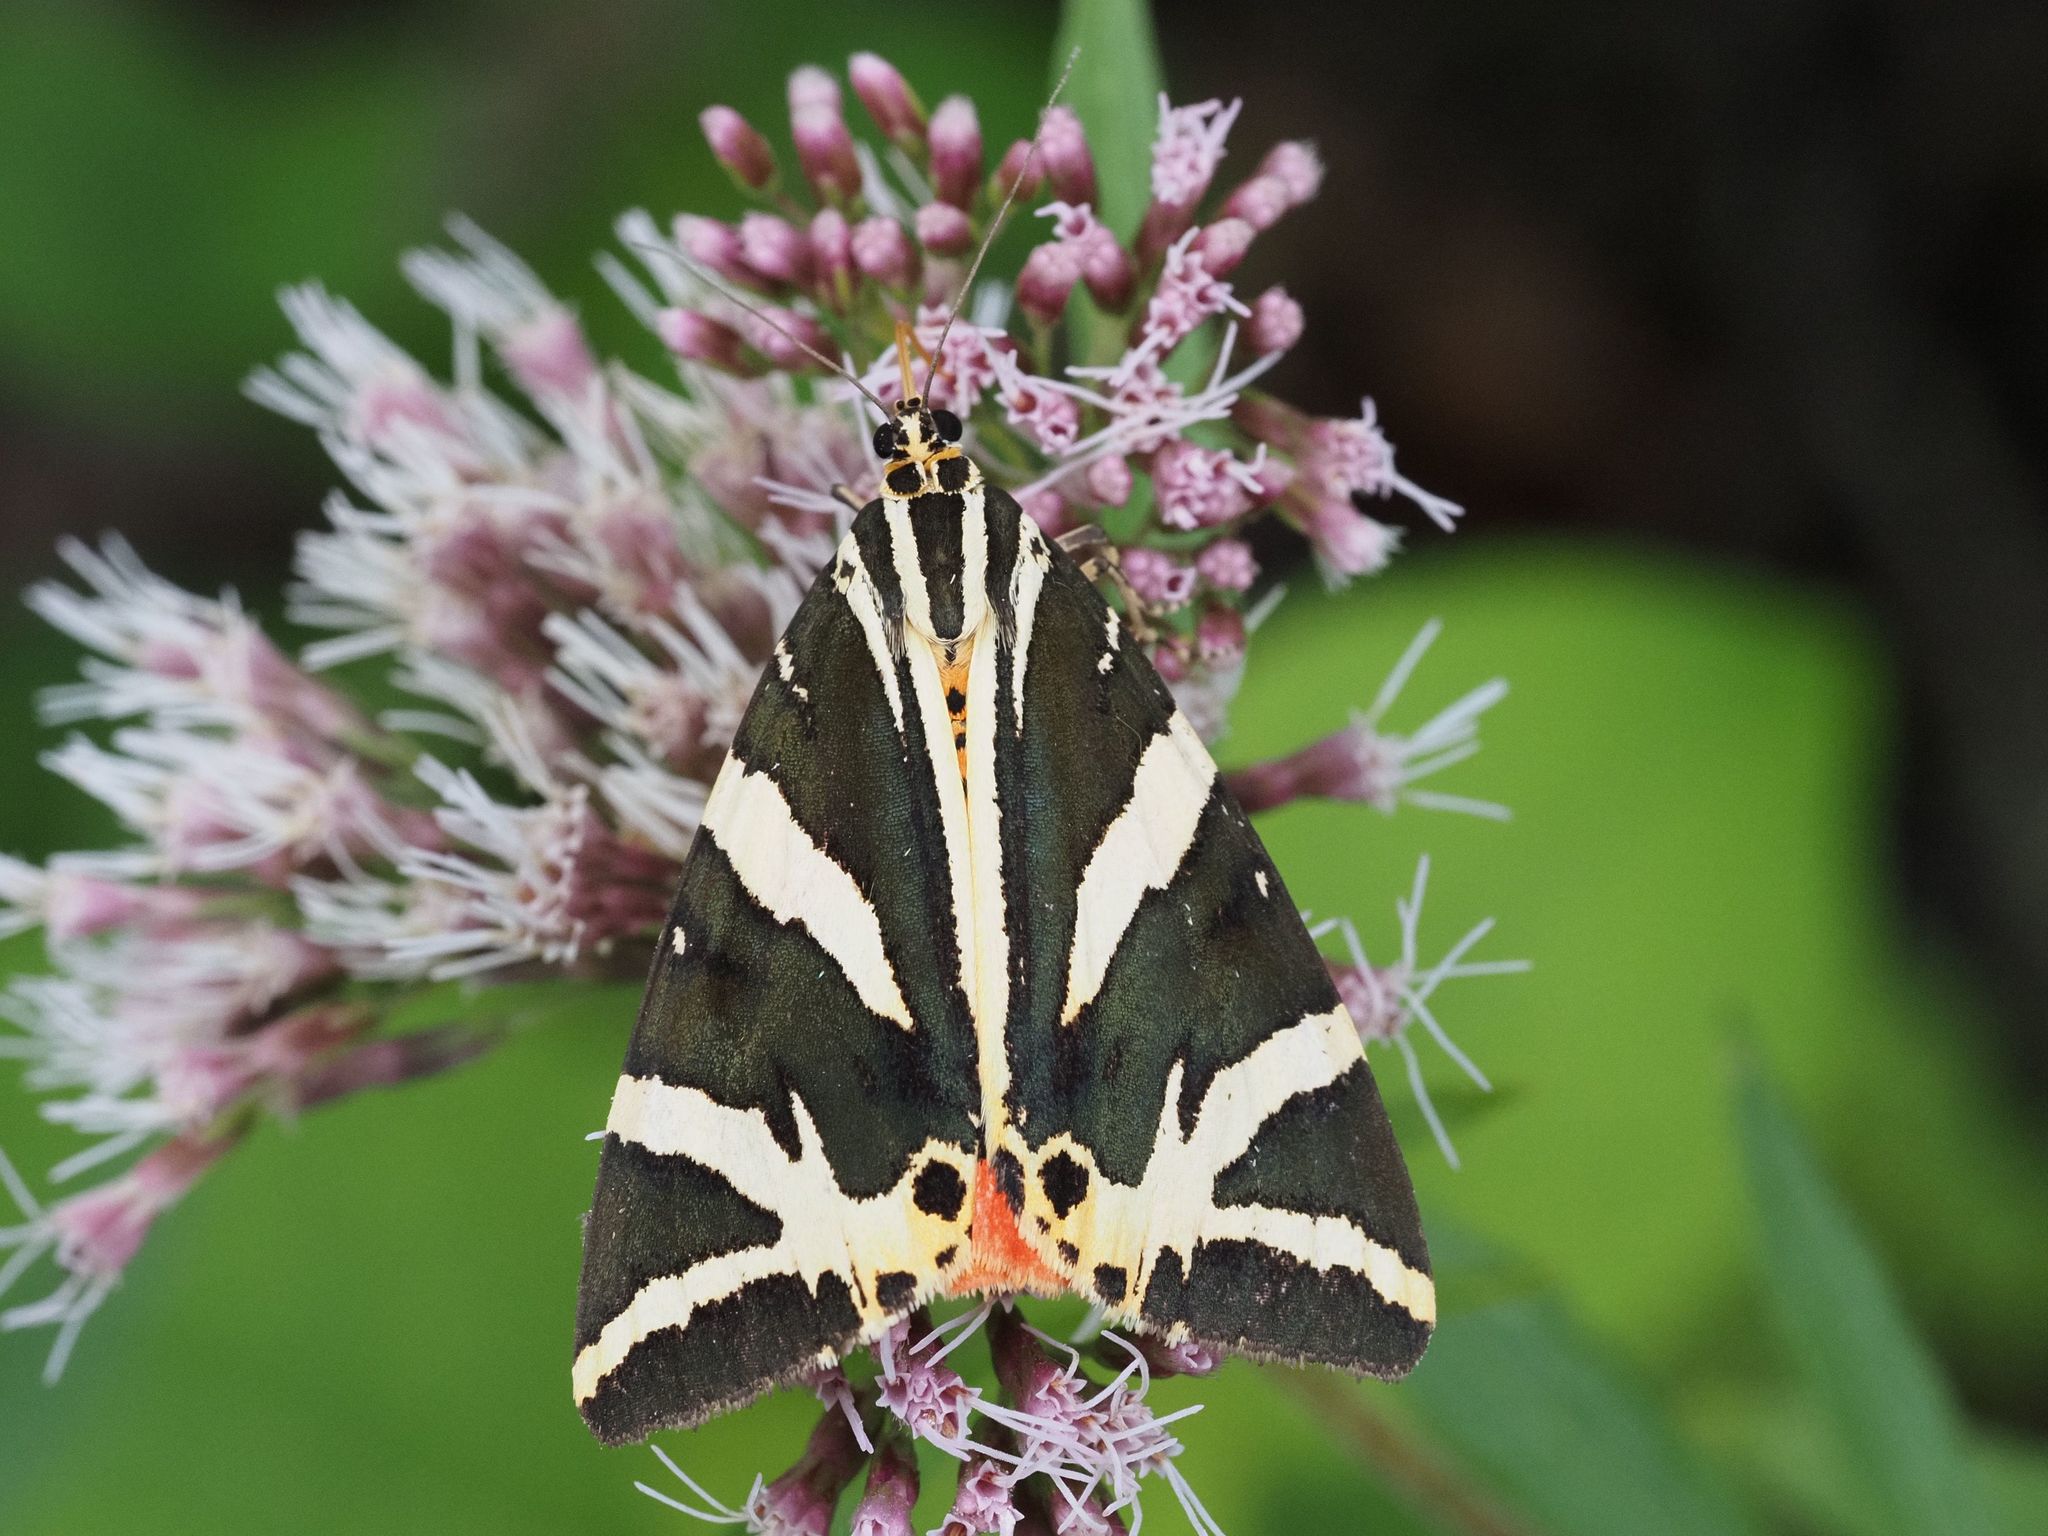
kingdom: Animalia
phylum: Arthropoda
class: Insecta
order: Lepidoptera
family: Erebidae
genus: Euplagia
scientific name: Euplagia quadripunctaria
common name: Jersey tiger
